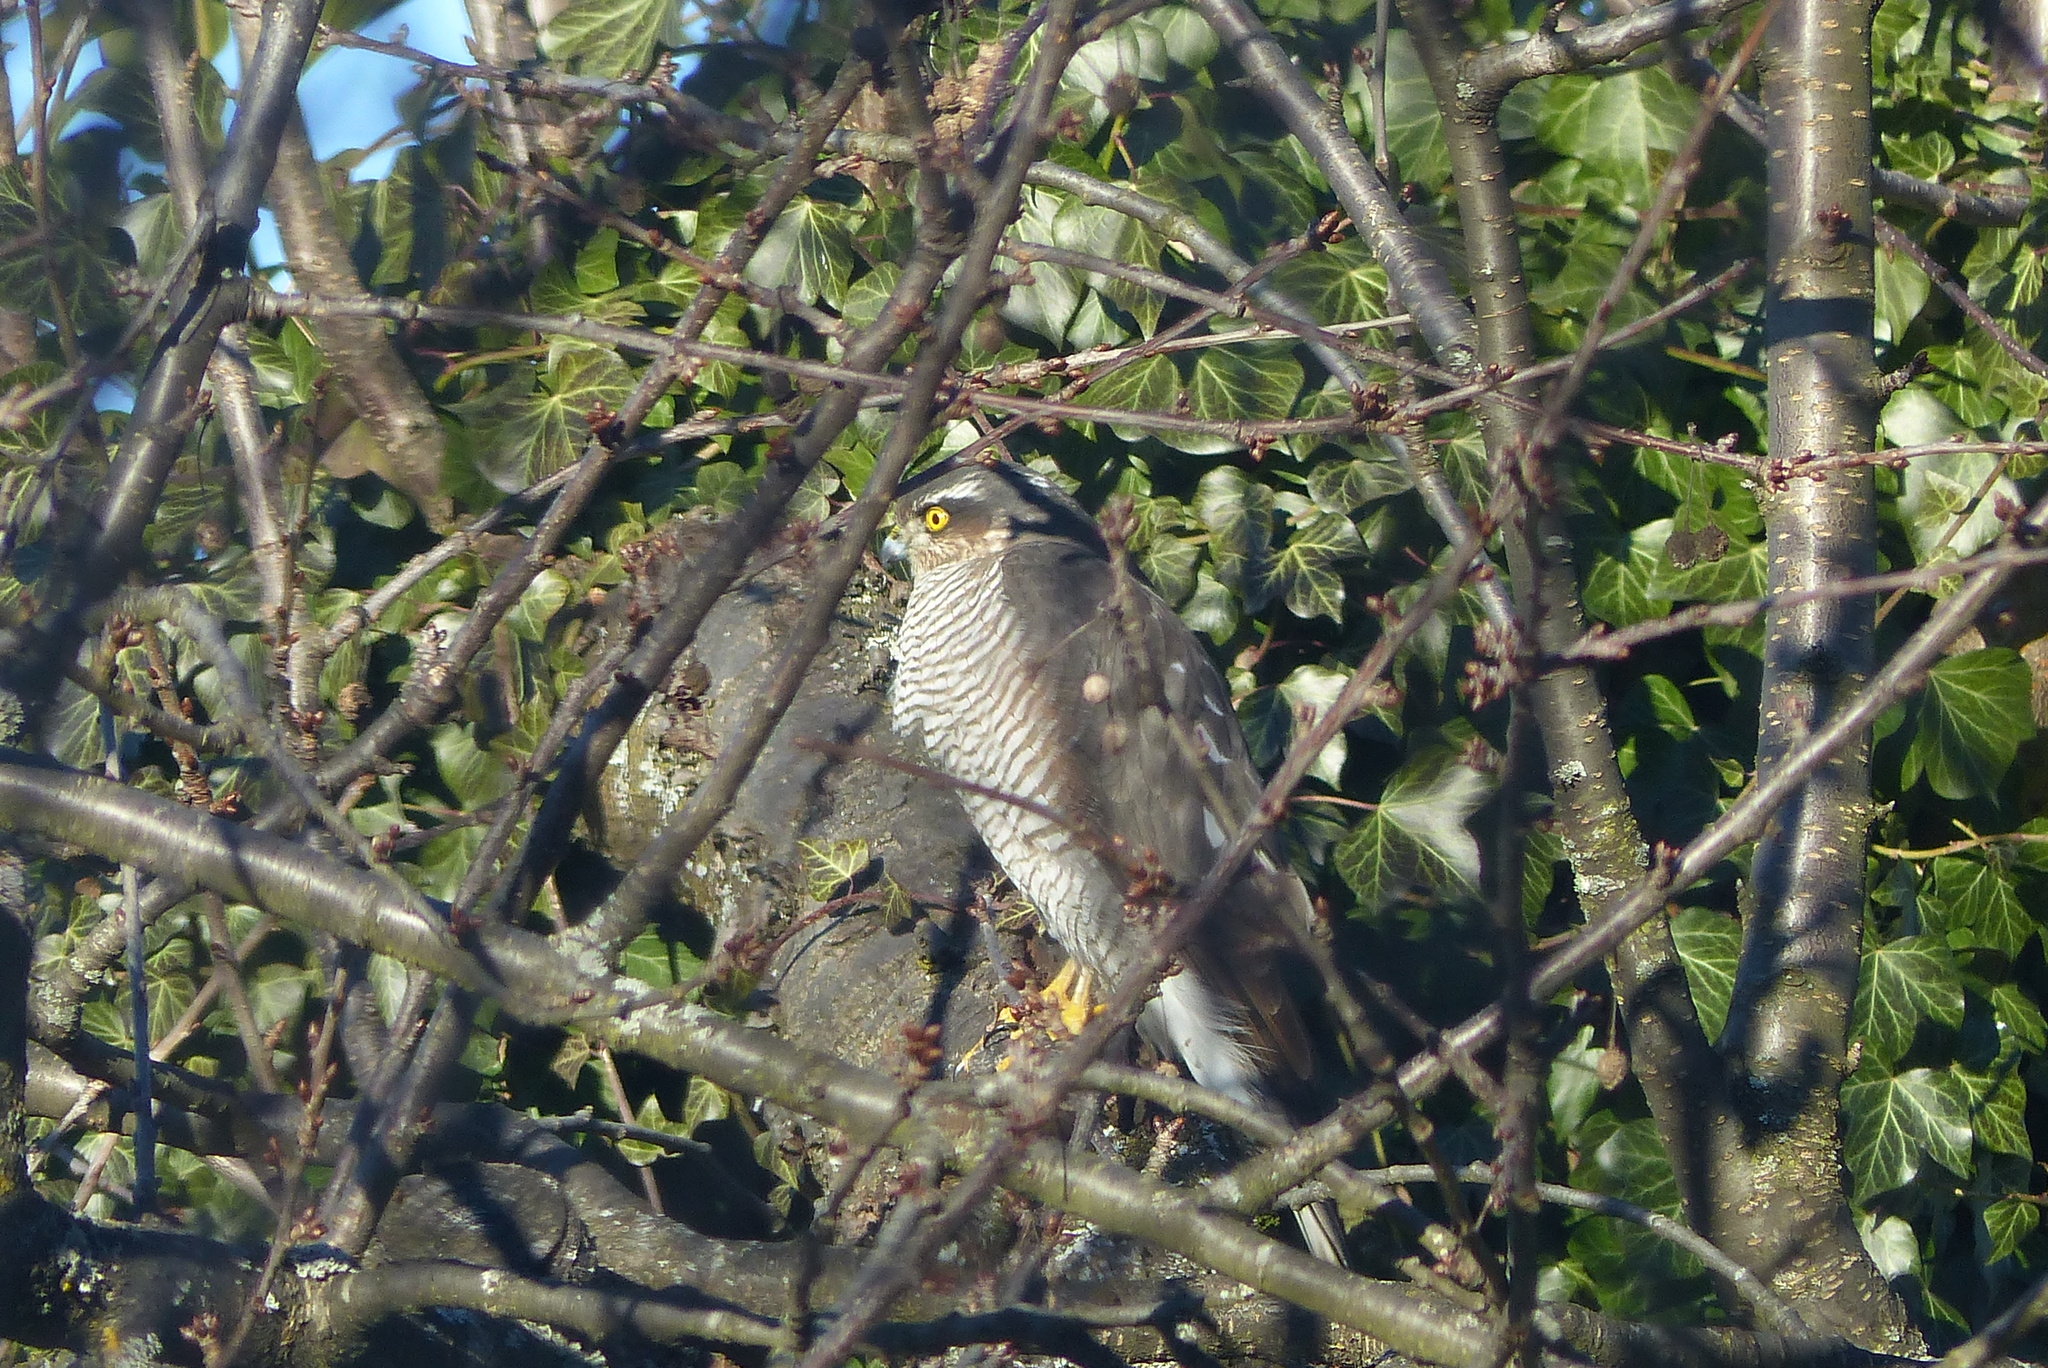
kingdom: Animalia
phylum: Chordata
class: Aves
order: Accipitriformes
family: Accipitridae
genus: Accipiter
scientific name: Accipiter nisus
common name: Eurasian sparrowhawk
